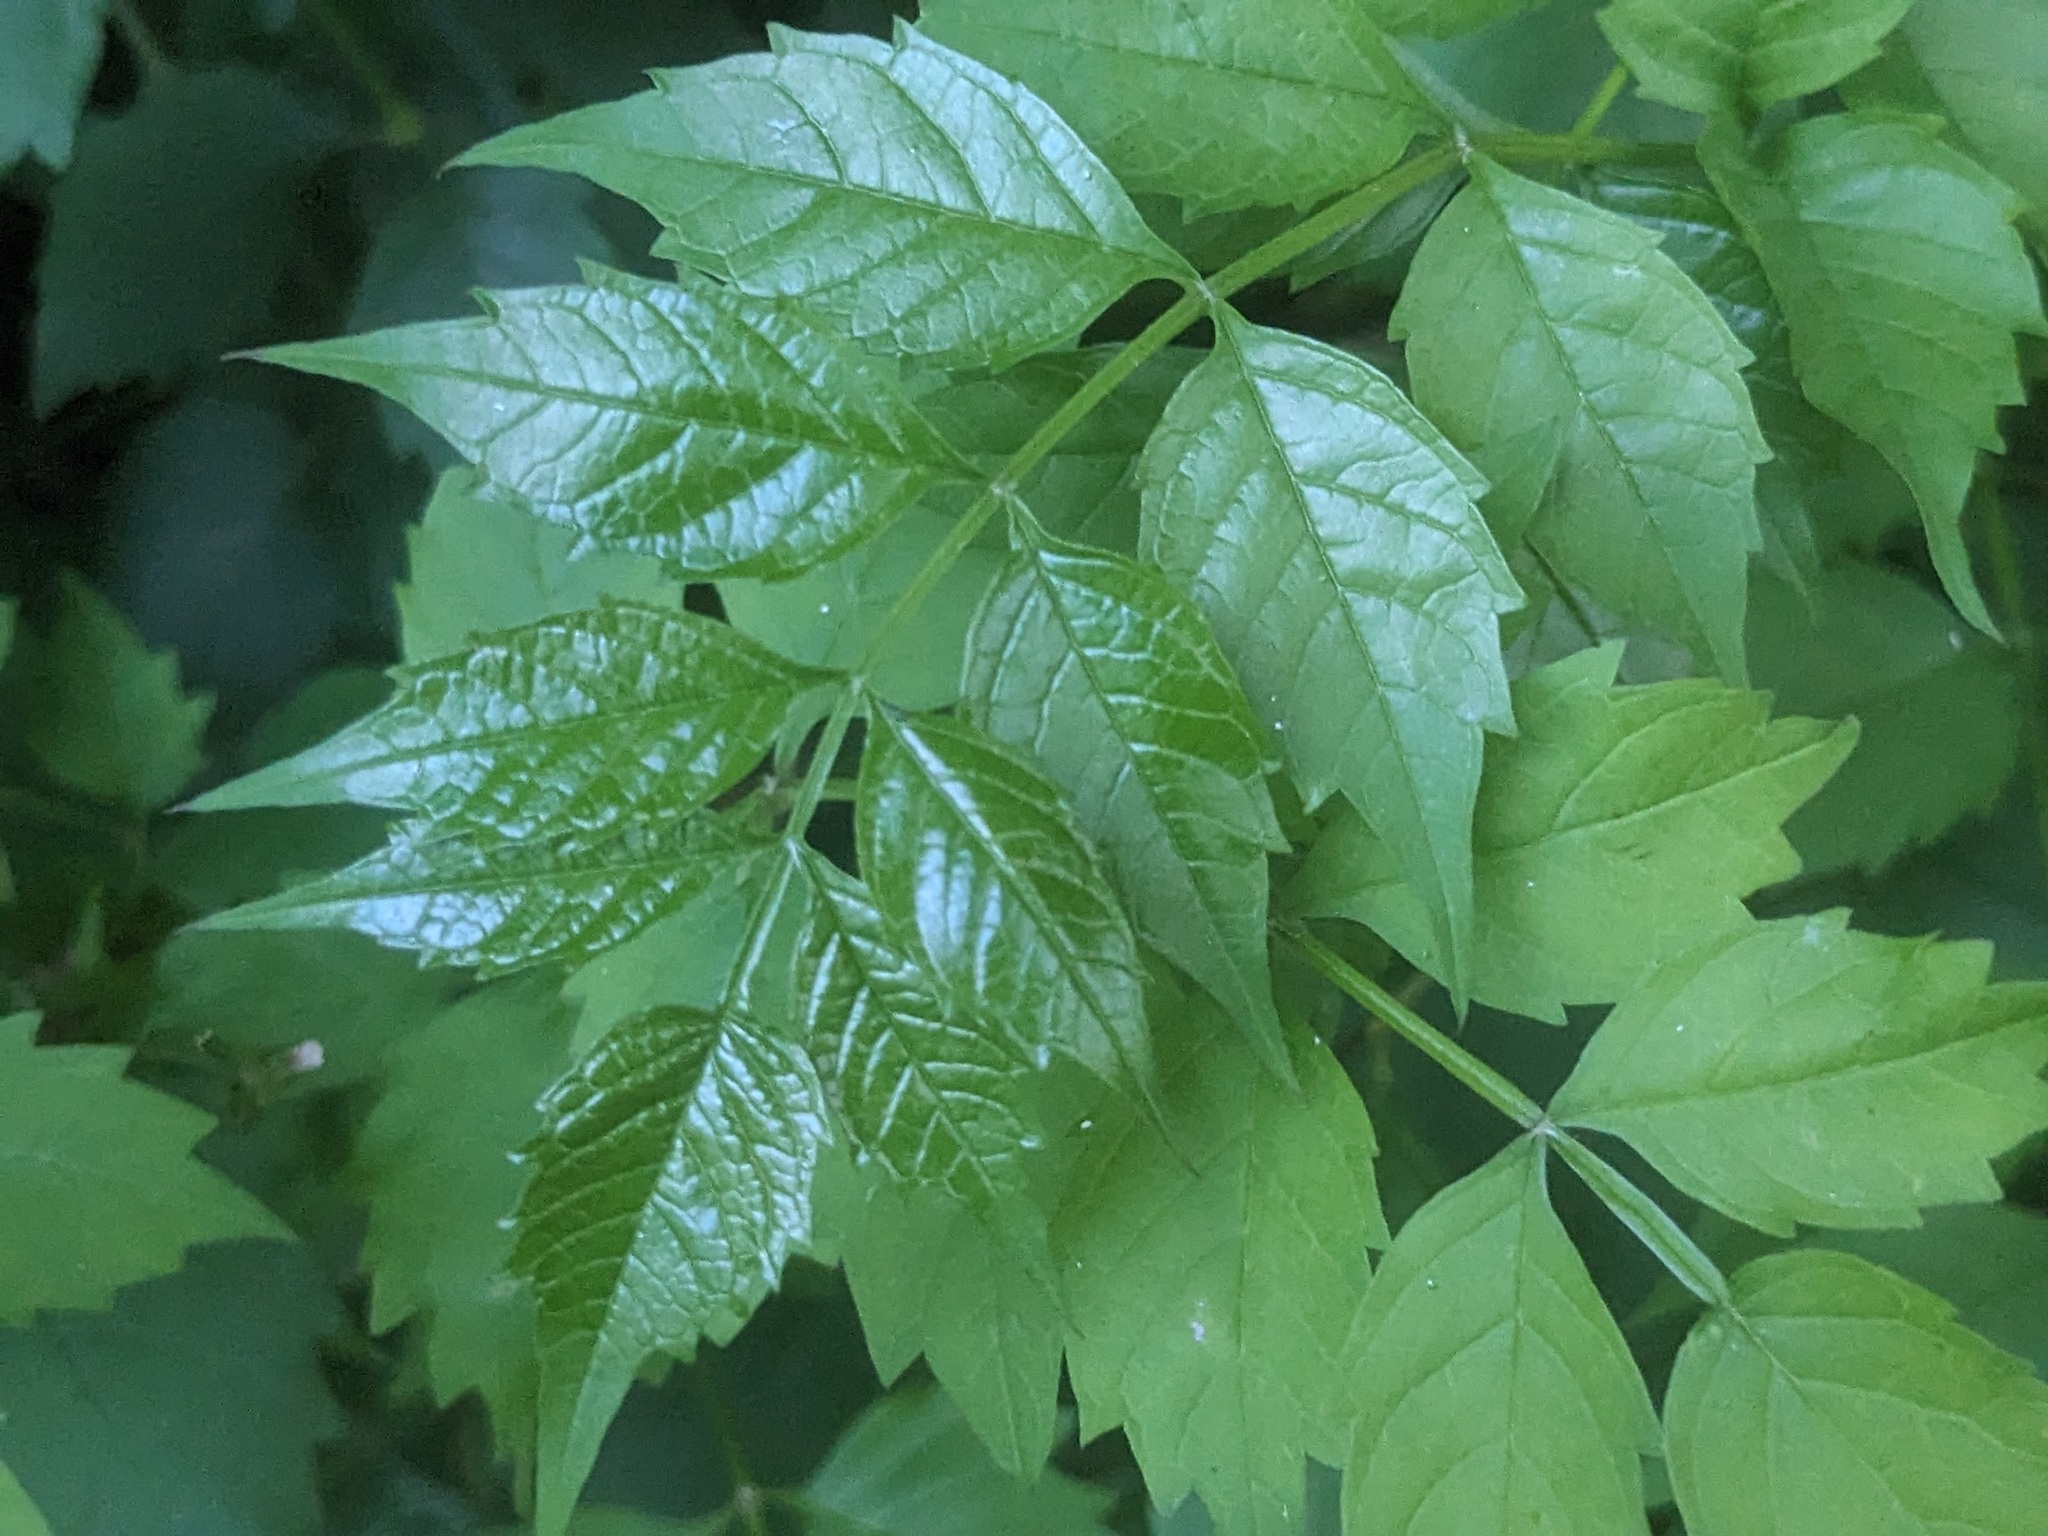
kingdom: Plantae
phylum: Tracheophyta
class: Magnoliopsida
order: Lamiales
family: Bignoniaceae
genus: Campsis
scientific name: Campsis radicans
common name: Trumpet-creeper
